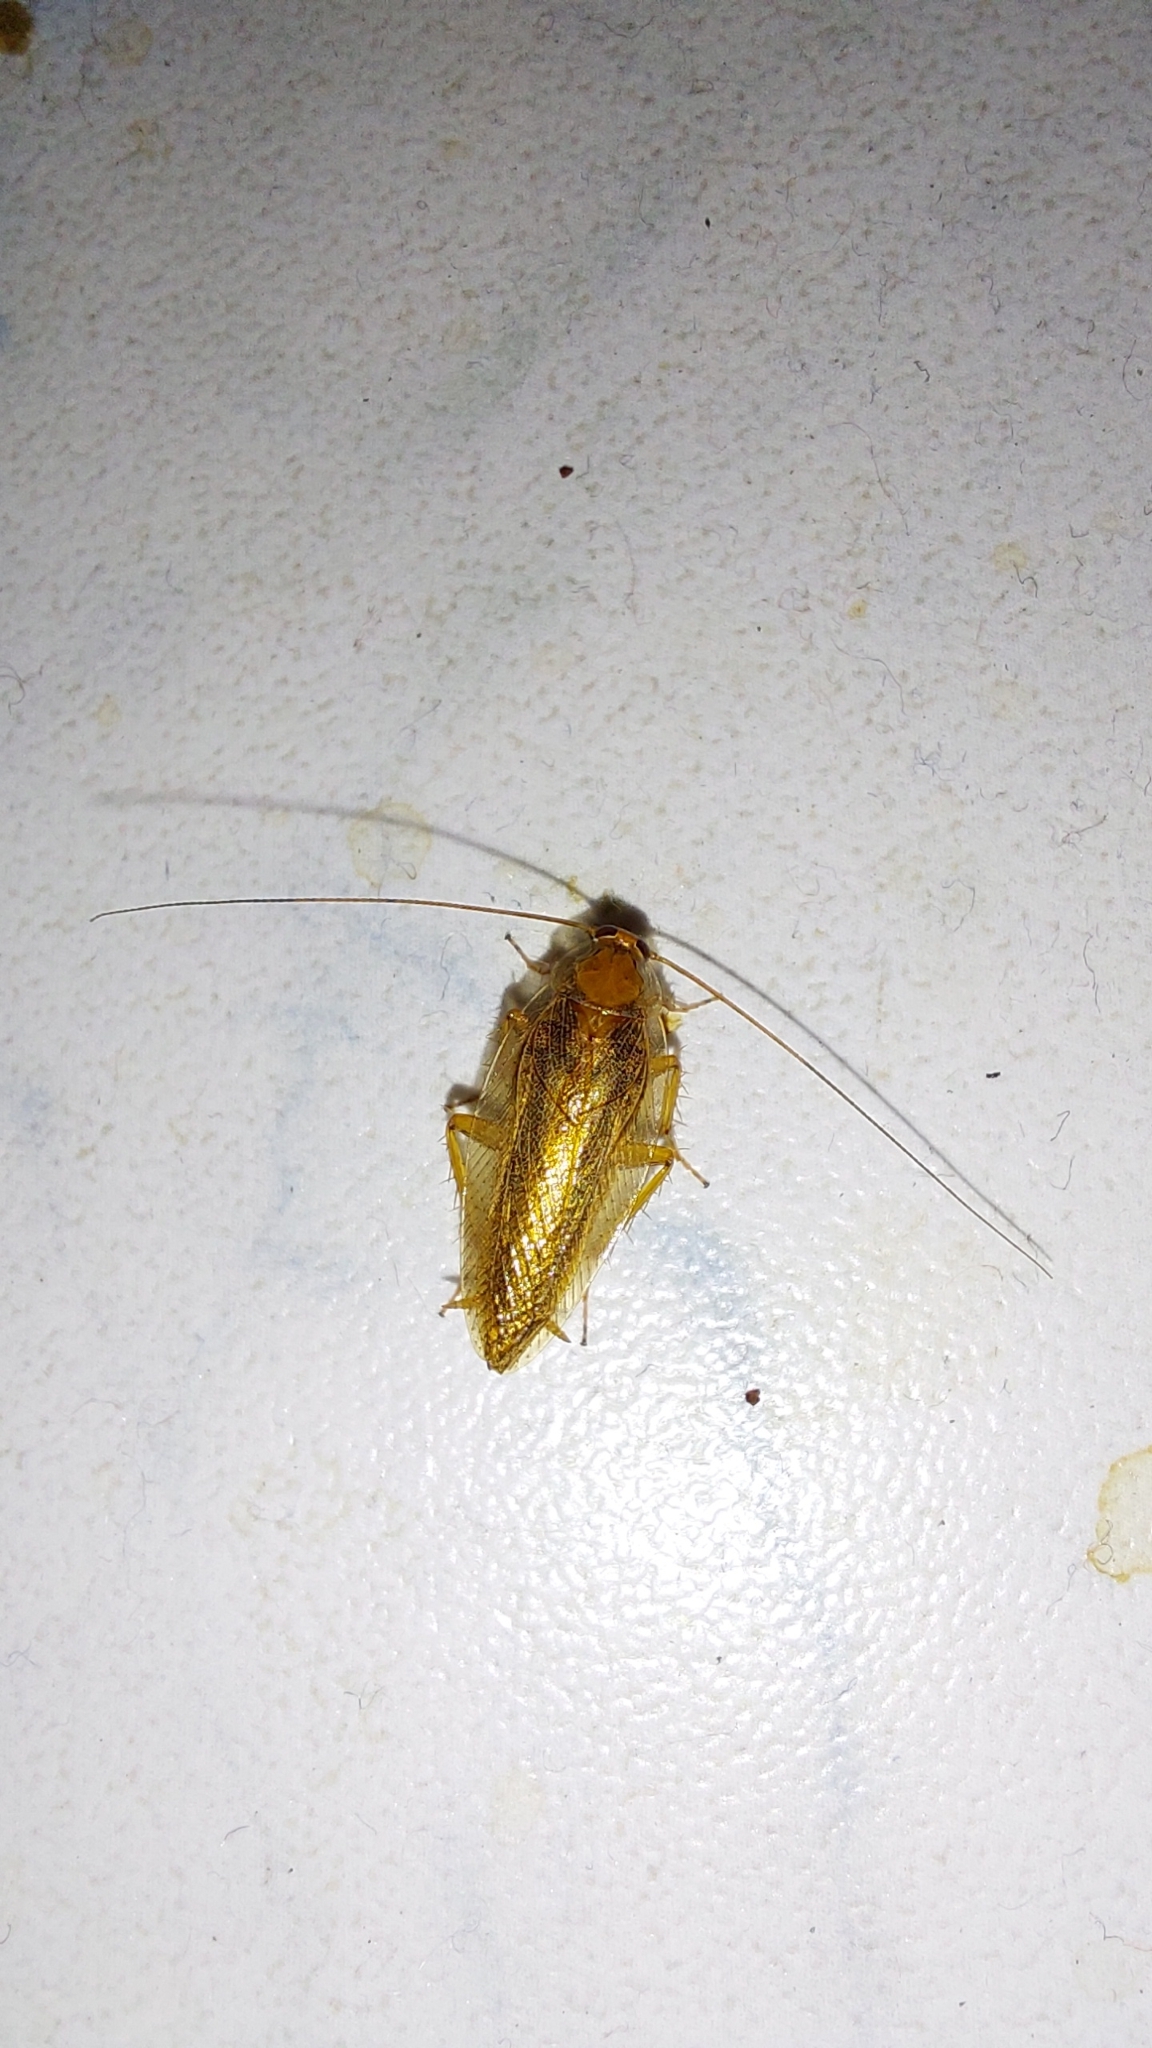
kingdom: Animalia
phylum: Arthropoda
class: Insecta
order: Blattodea
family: Ectobiidae
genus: Ectobius
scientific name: Ectobius vittiventris
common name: Garden cockroach
